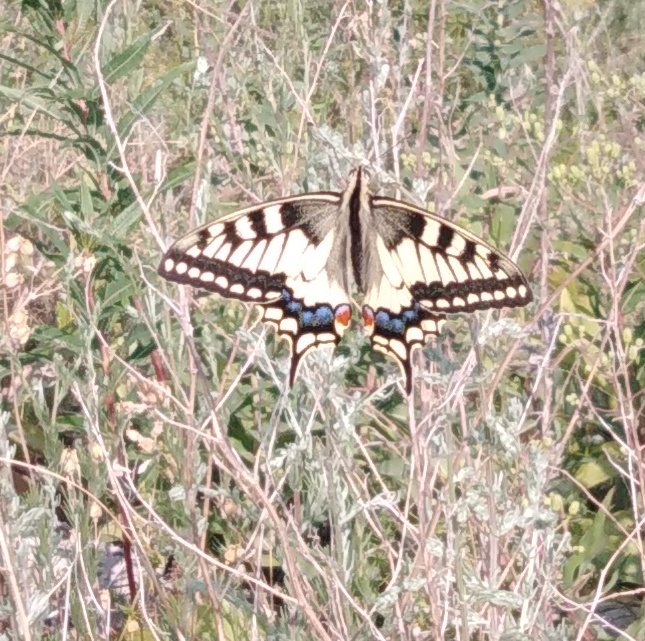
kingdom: Animalia
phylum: Arthropoda
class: Insecta
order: Lepidoptera
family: Papilionidae
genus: Papilio
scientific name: Papilio machaon
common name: Swallowtail
